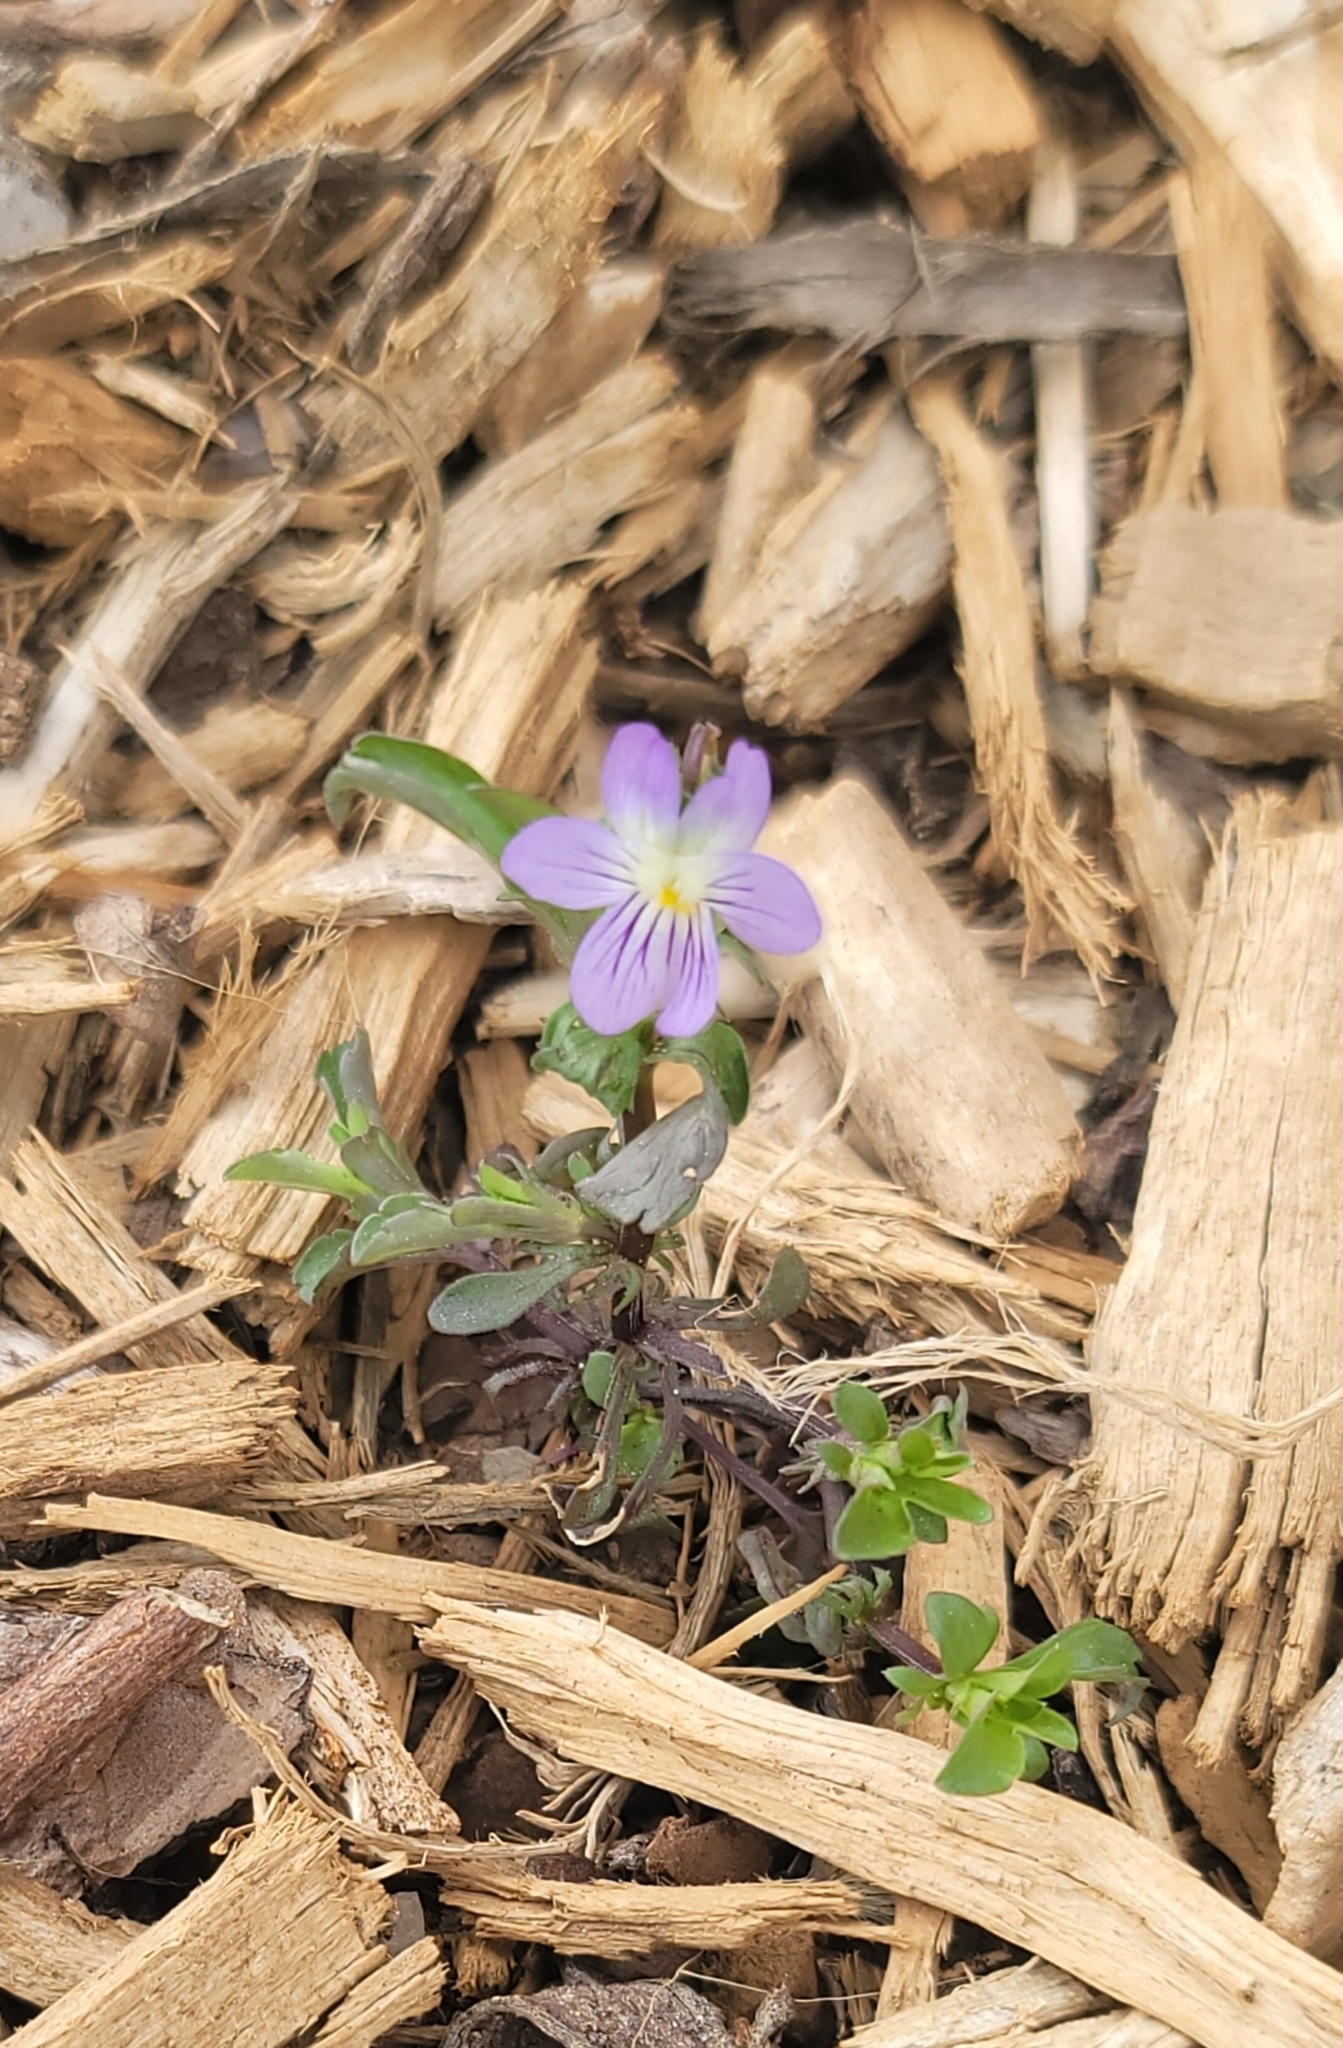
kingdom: Plantae
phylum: Tracheophyta
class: Magnoliopsida
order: Malpighiales
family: Violaceae
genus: Viola
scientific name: Viola rafinesquei
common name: American field pansy
